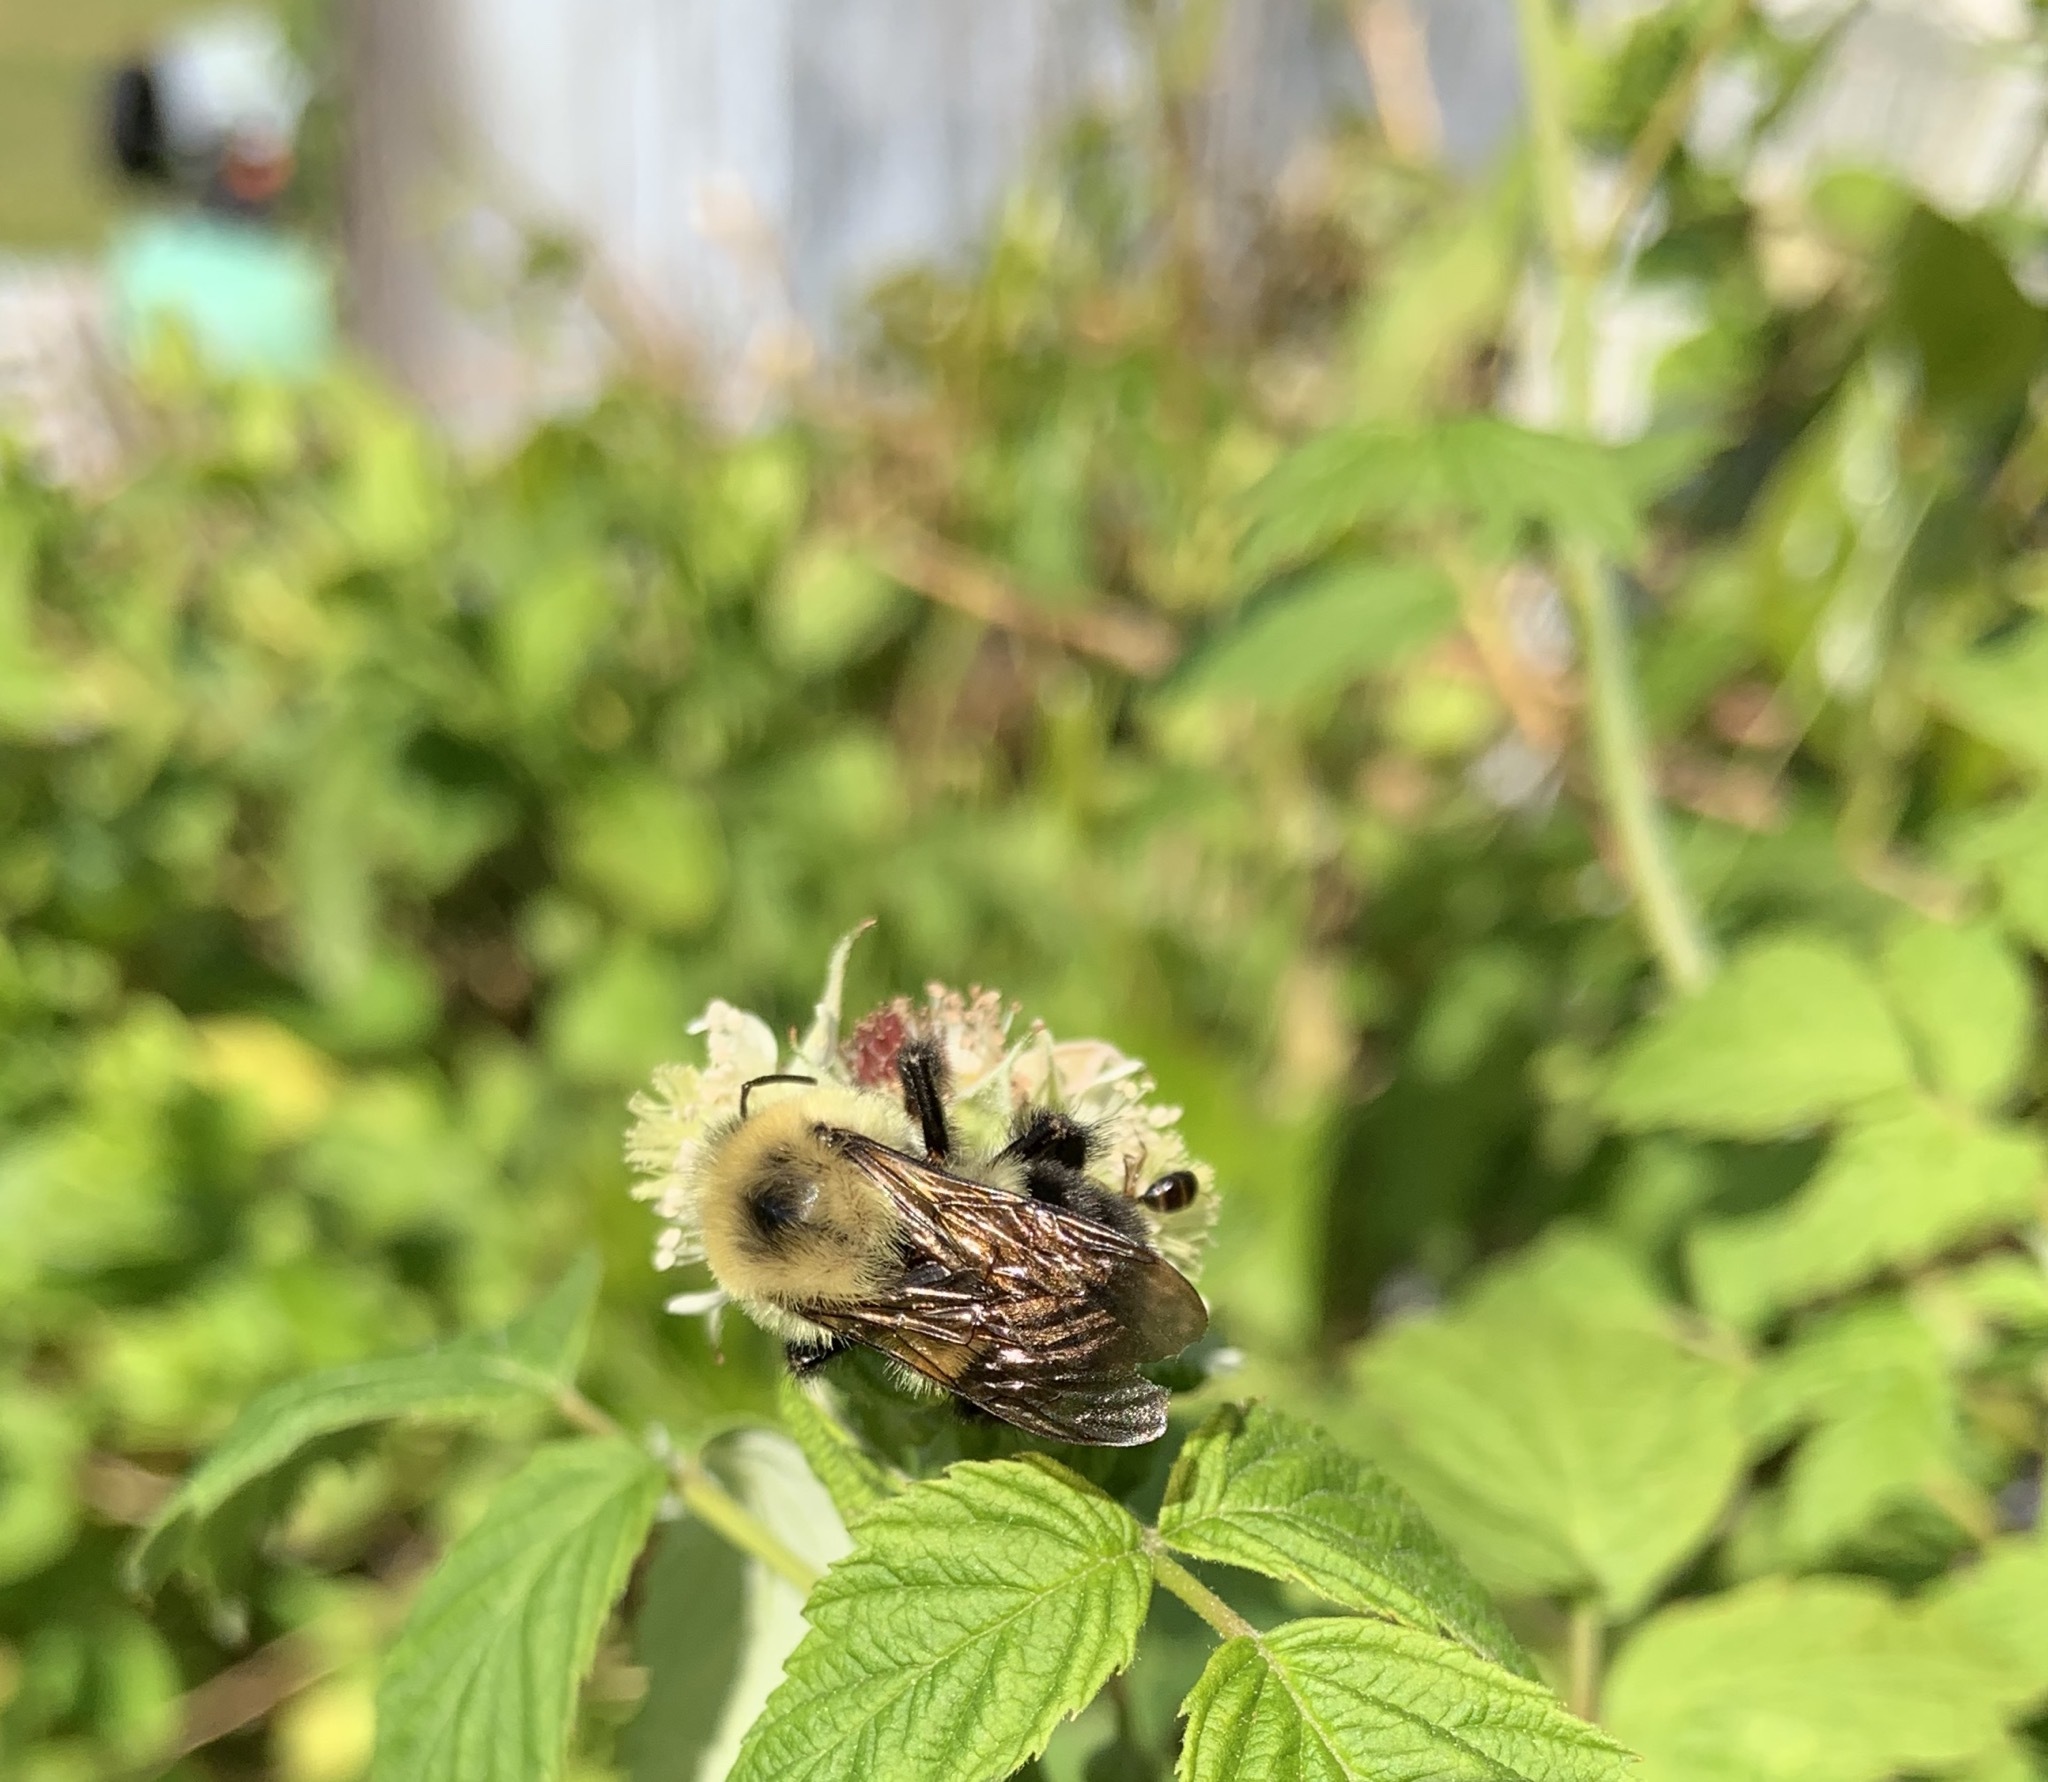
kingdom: Animalia
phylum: Arthropoda
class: Insecta
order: Hymenoptera
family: Apidae
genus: Bombus
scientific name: Bombus bimaculatus
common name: Two-spotted bumble bee
